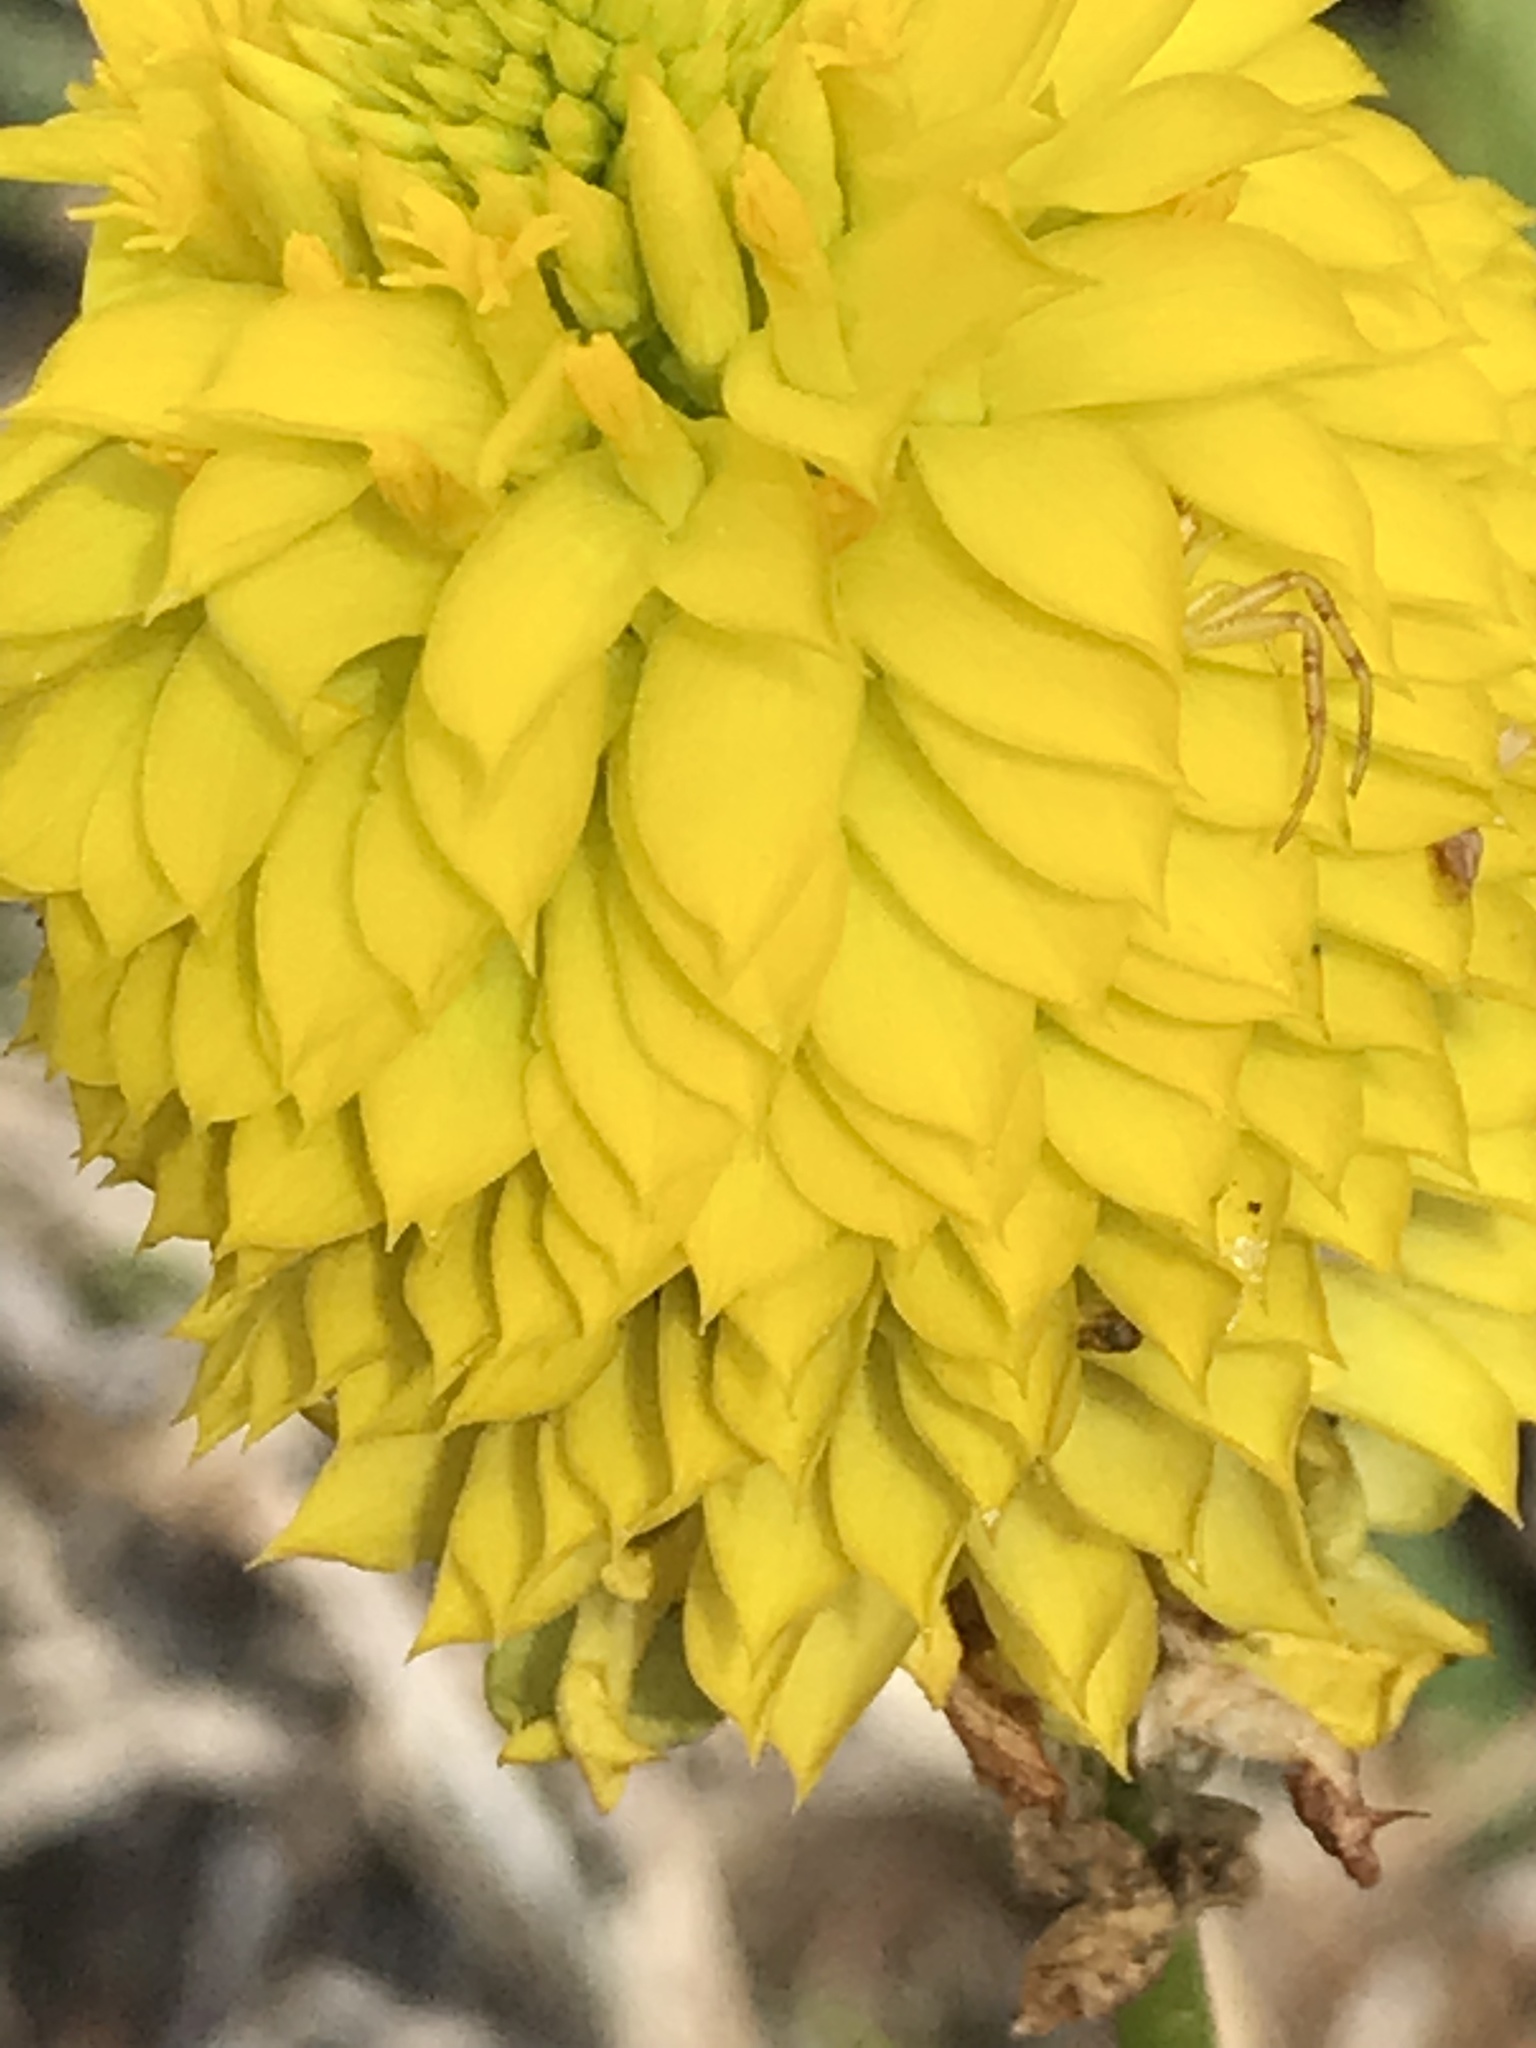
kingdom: Plantae
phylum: Tracheophyta
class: Magnoliopsida
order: Fabales
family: Polygalaceae
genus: Polygala
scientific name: Polygala rugelii
